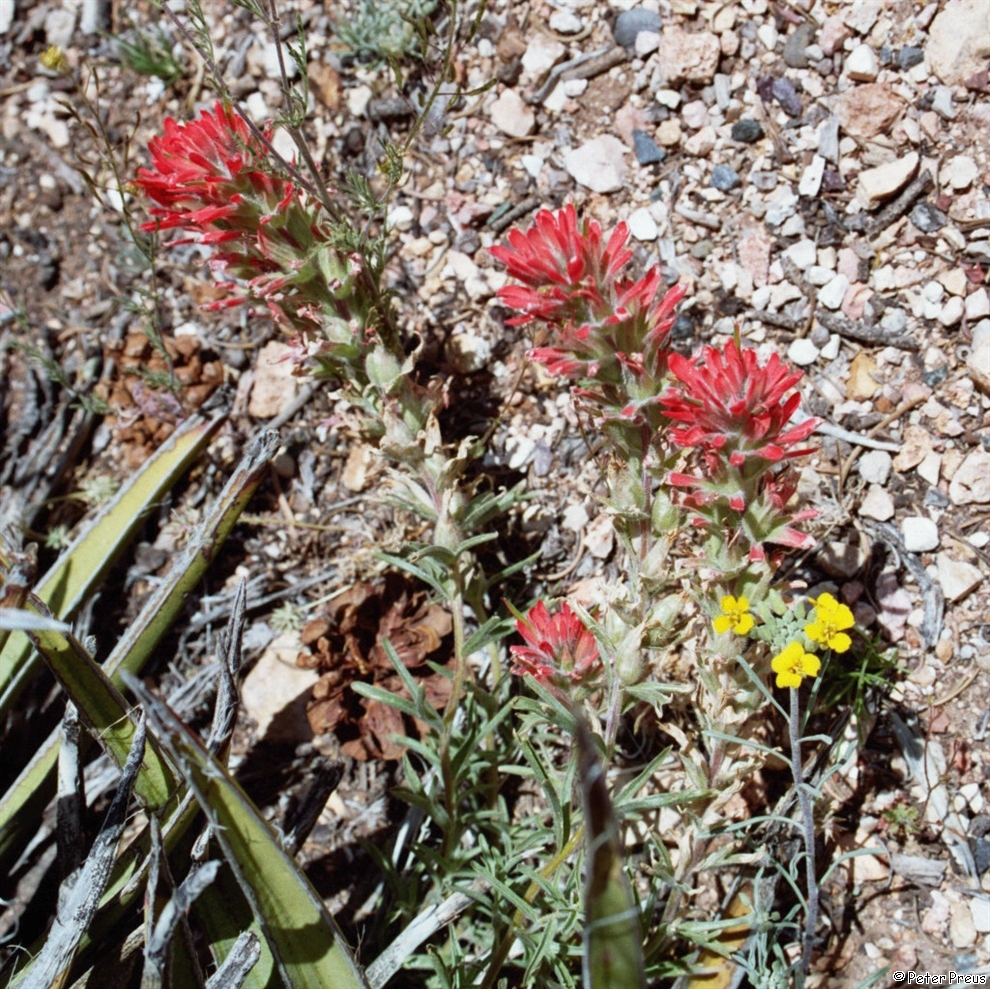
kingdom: Plantae
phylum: Tracheophyta
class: Magnoliopsida
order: Lamiales
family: Orobanchaceae
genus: Castilleja
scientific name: Castilleja chromosa
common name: Desert paintbrush
